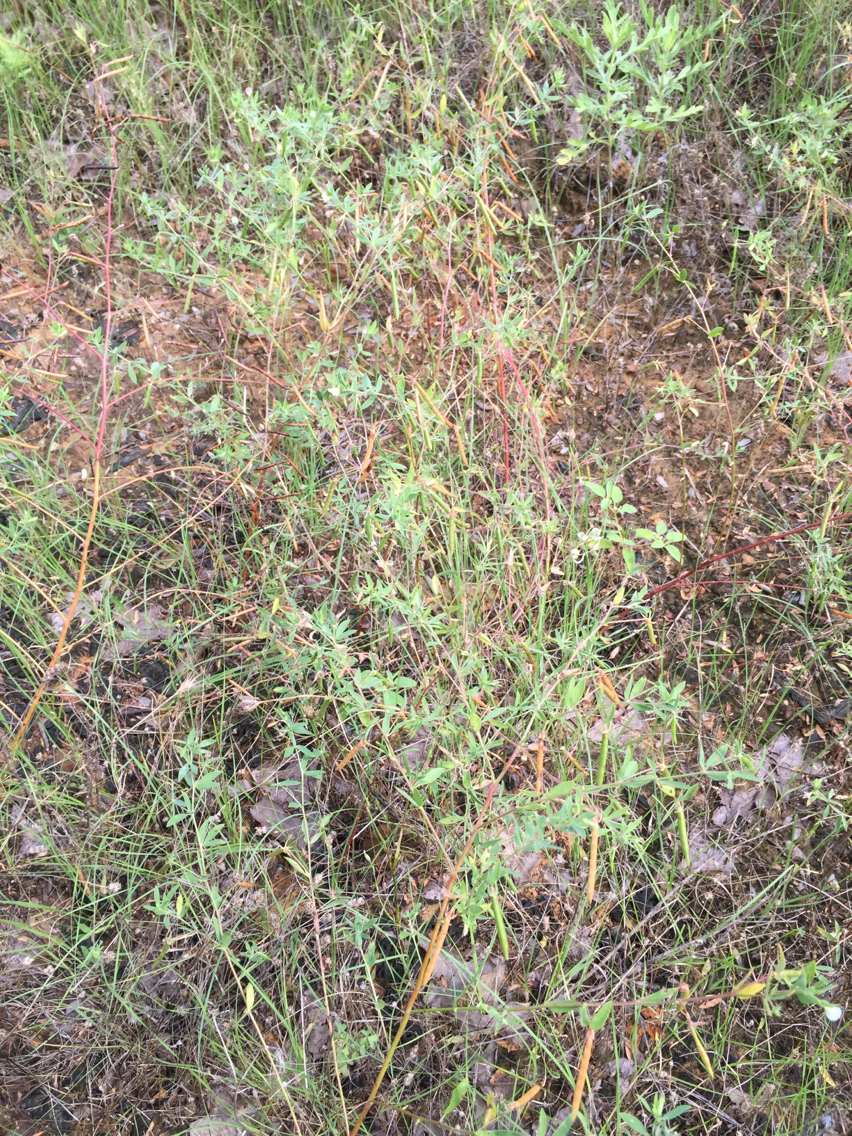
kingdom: Plantae
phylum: Tracheophyta
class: Magnoliopsida
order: Fabales
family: Fabaceae
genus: Acmispon
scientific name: Acmispon americanus
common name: American bird's-foot trefoil
